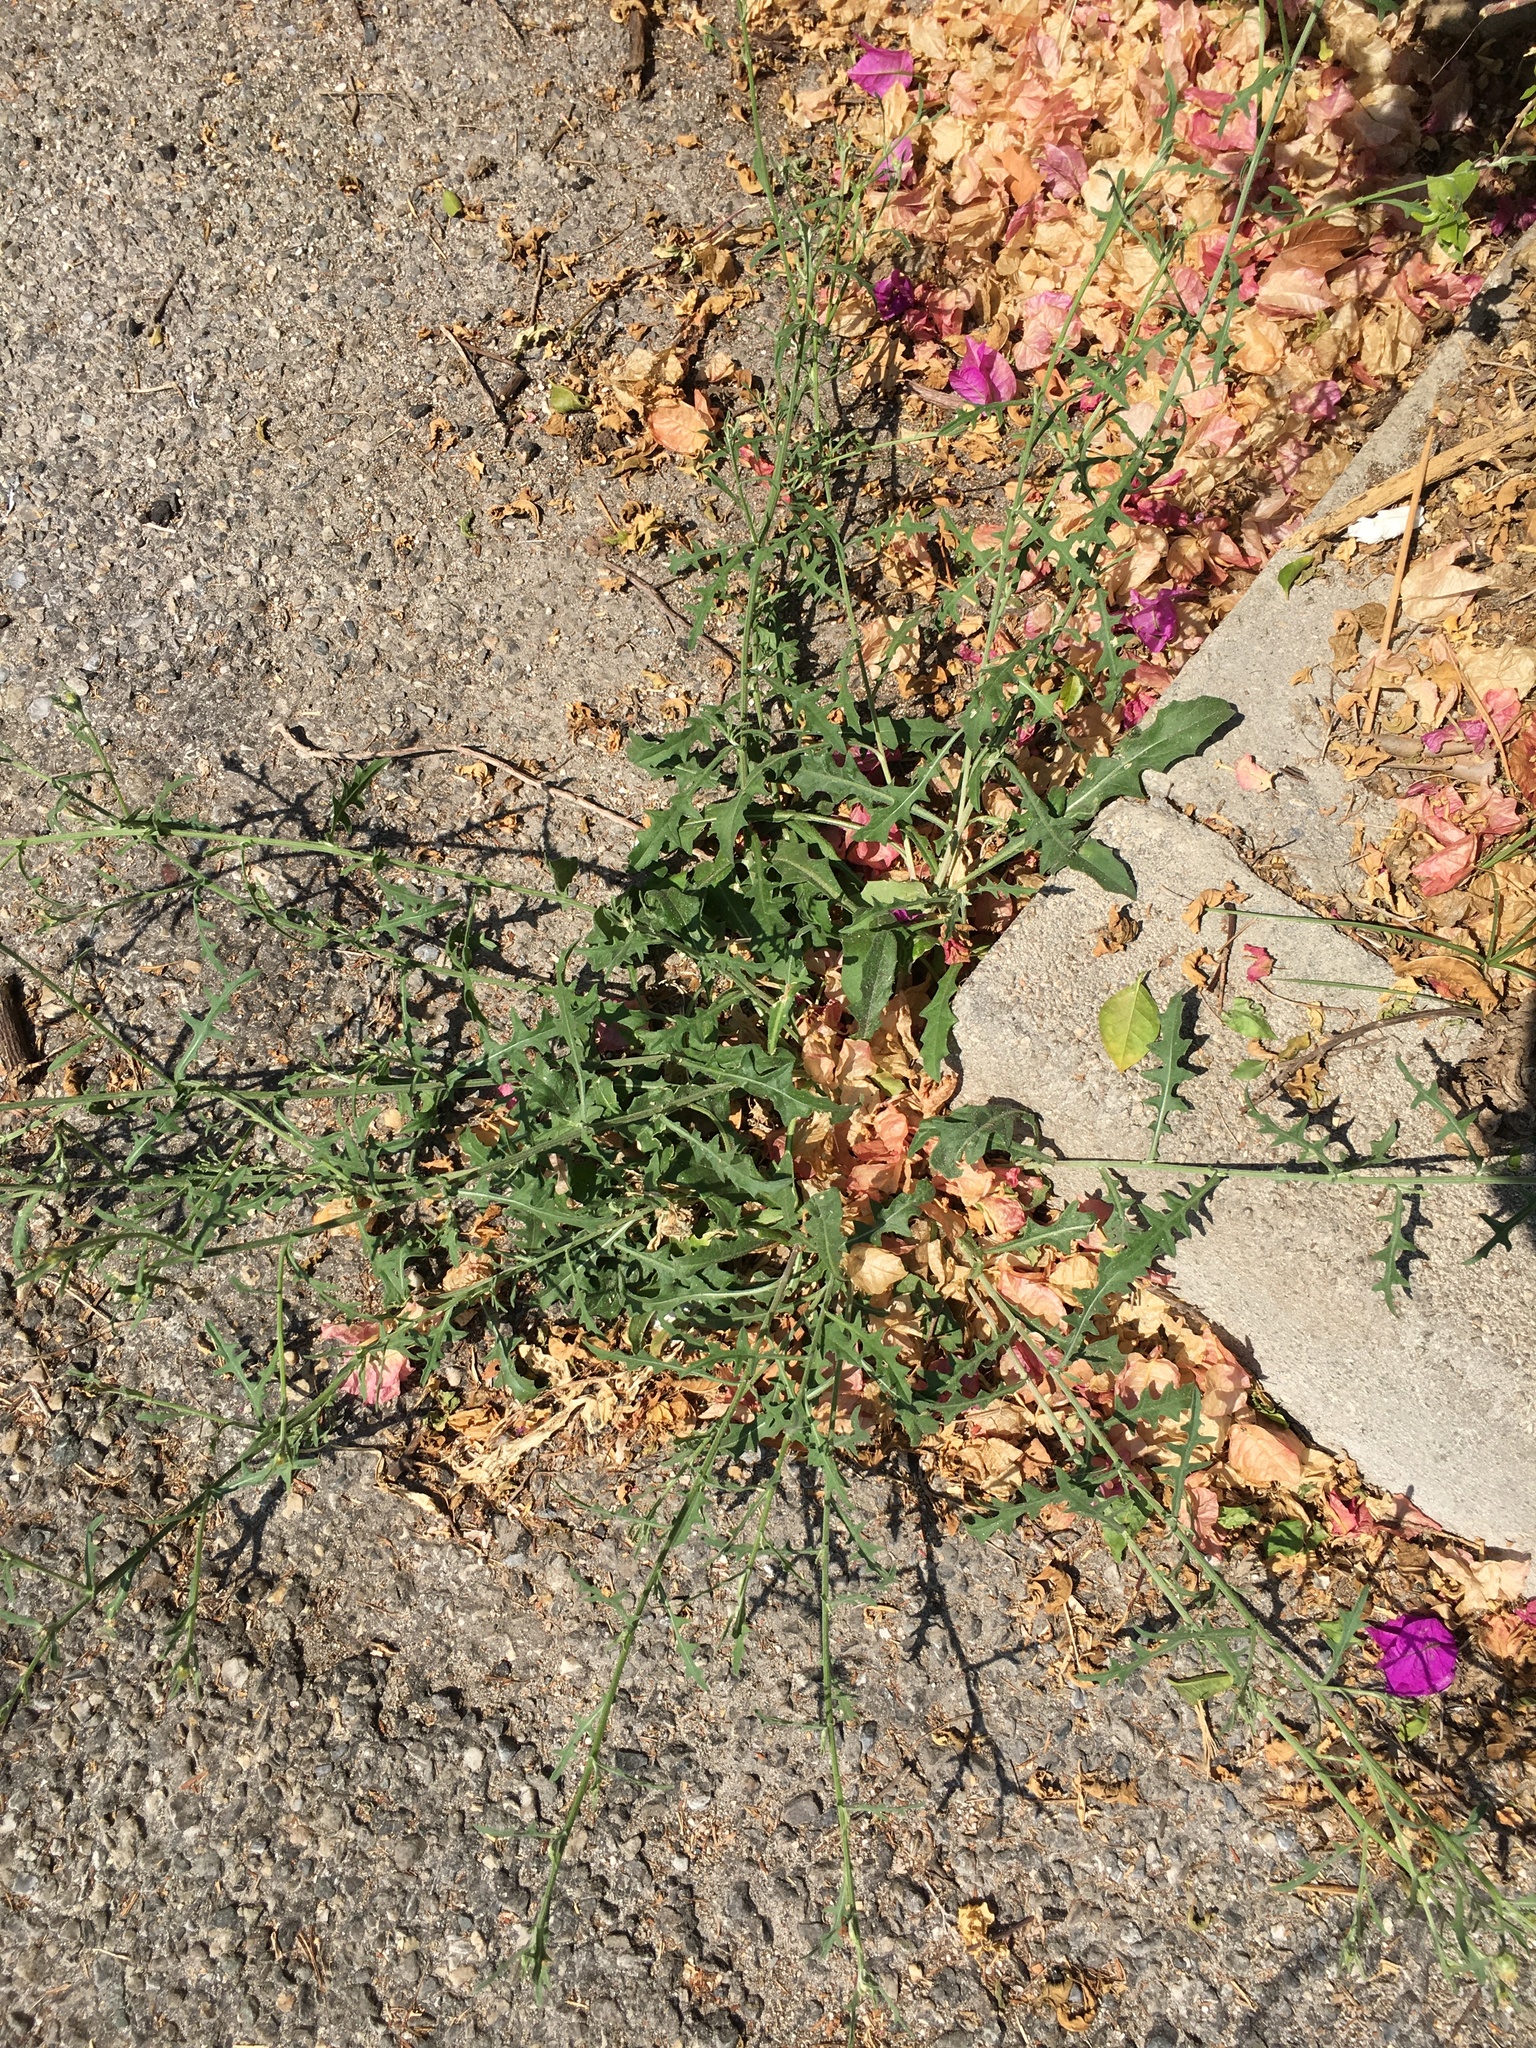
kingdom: Plantae
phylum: Tracheophyta
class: Magnoliopsida
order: Asterales
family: Asteraceae
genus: Centaurea
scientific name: Centaurea aspera
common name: Rough star-thistle
